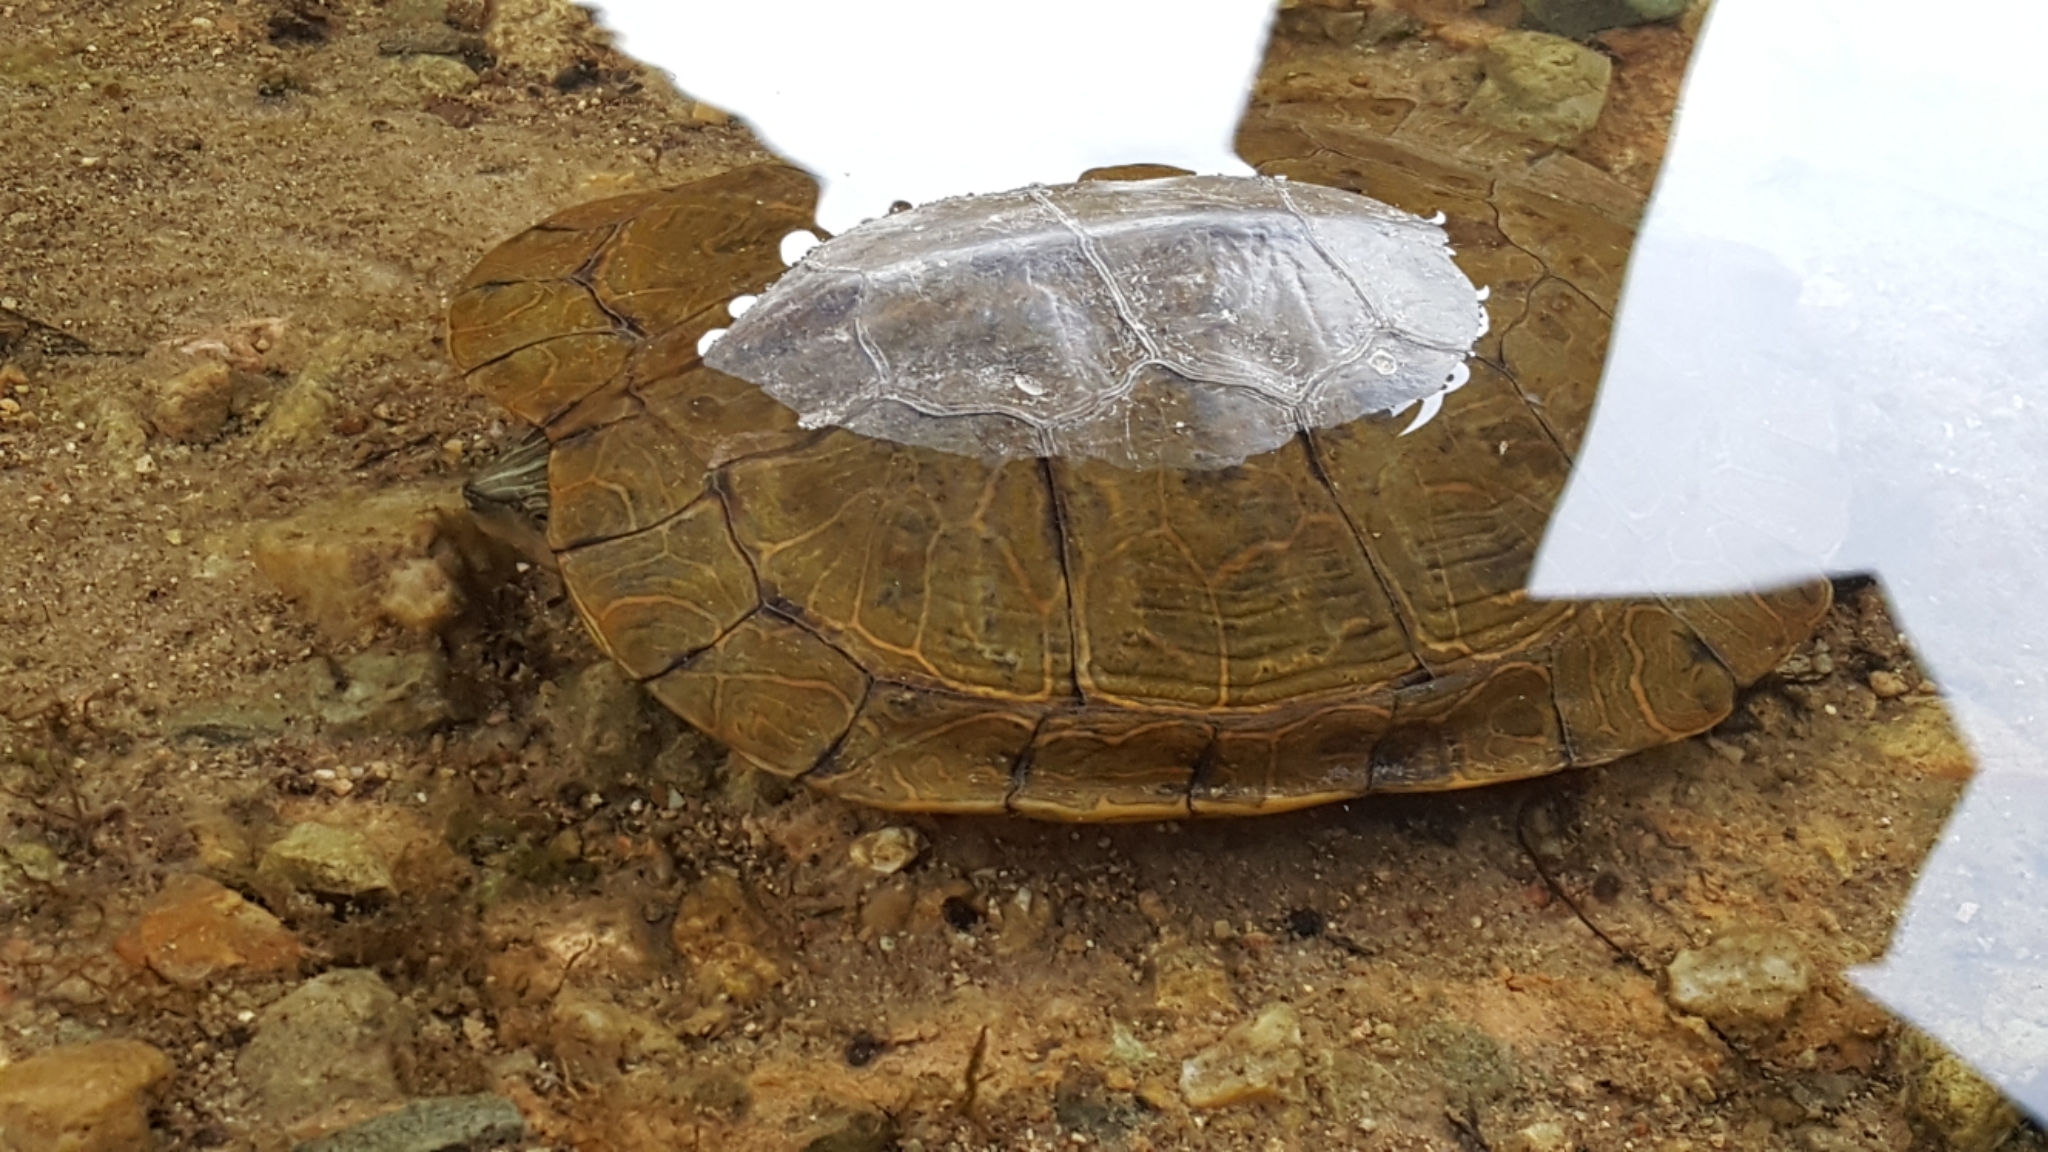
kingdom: Animalia
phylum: Chordata
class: Testudines
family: Emydidae
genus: Graptemys
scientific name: Graptemys geographica
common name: Common map turtle
